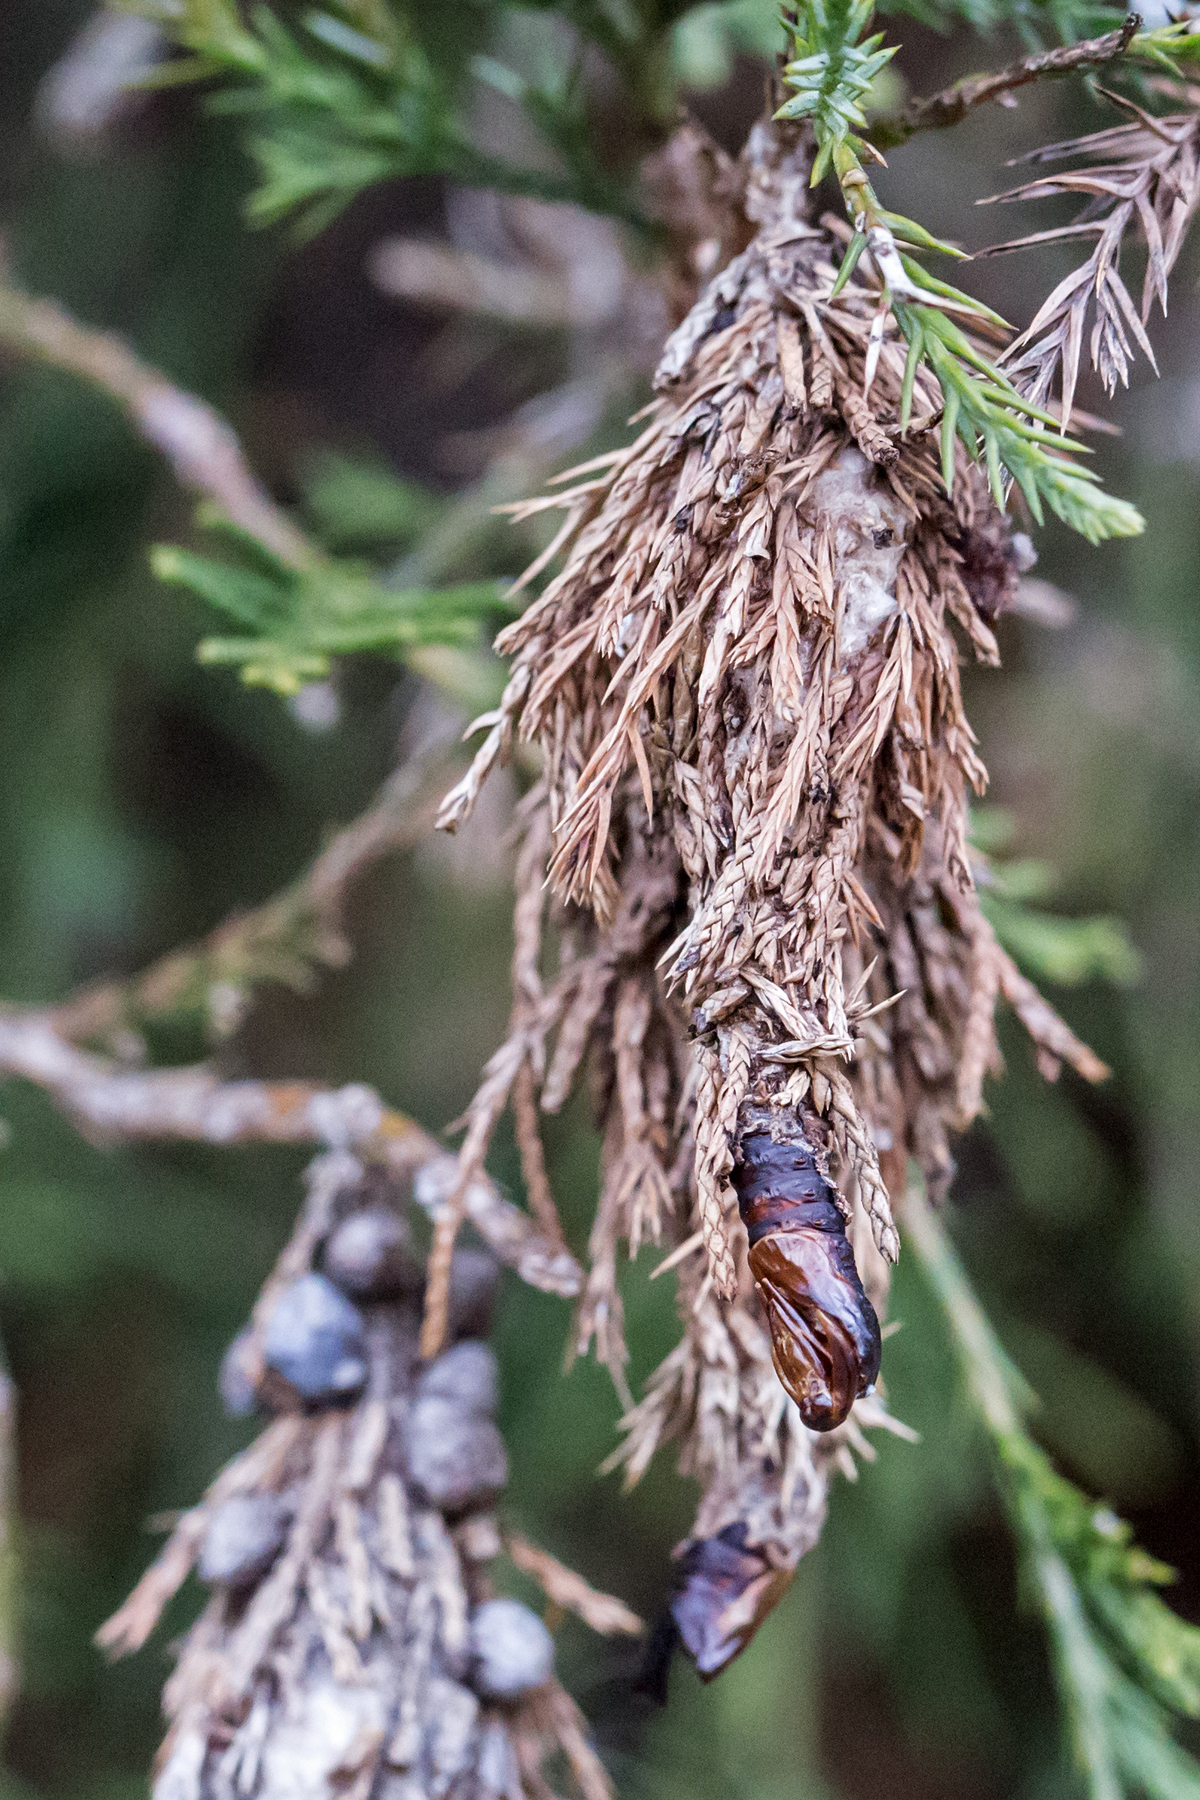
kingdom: Animalia
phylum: Arthropoda
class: Insecta
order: Lepidoptera
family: Psychidae
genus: Thyridopteryx
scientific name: Thyridopteryx ephemeraeformis
